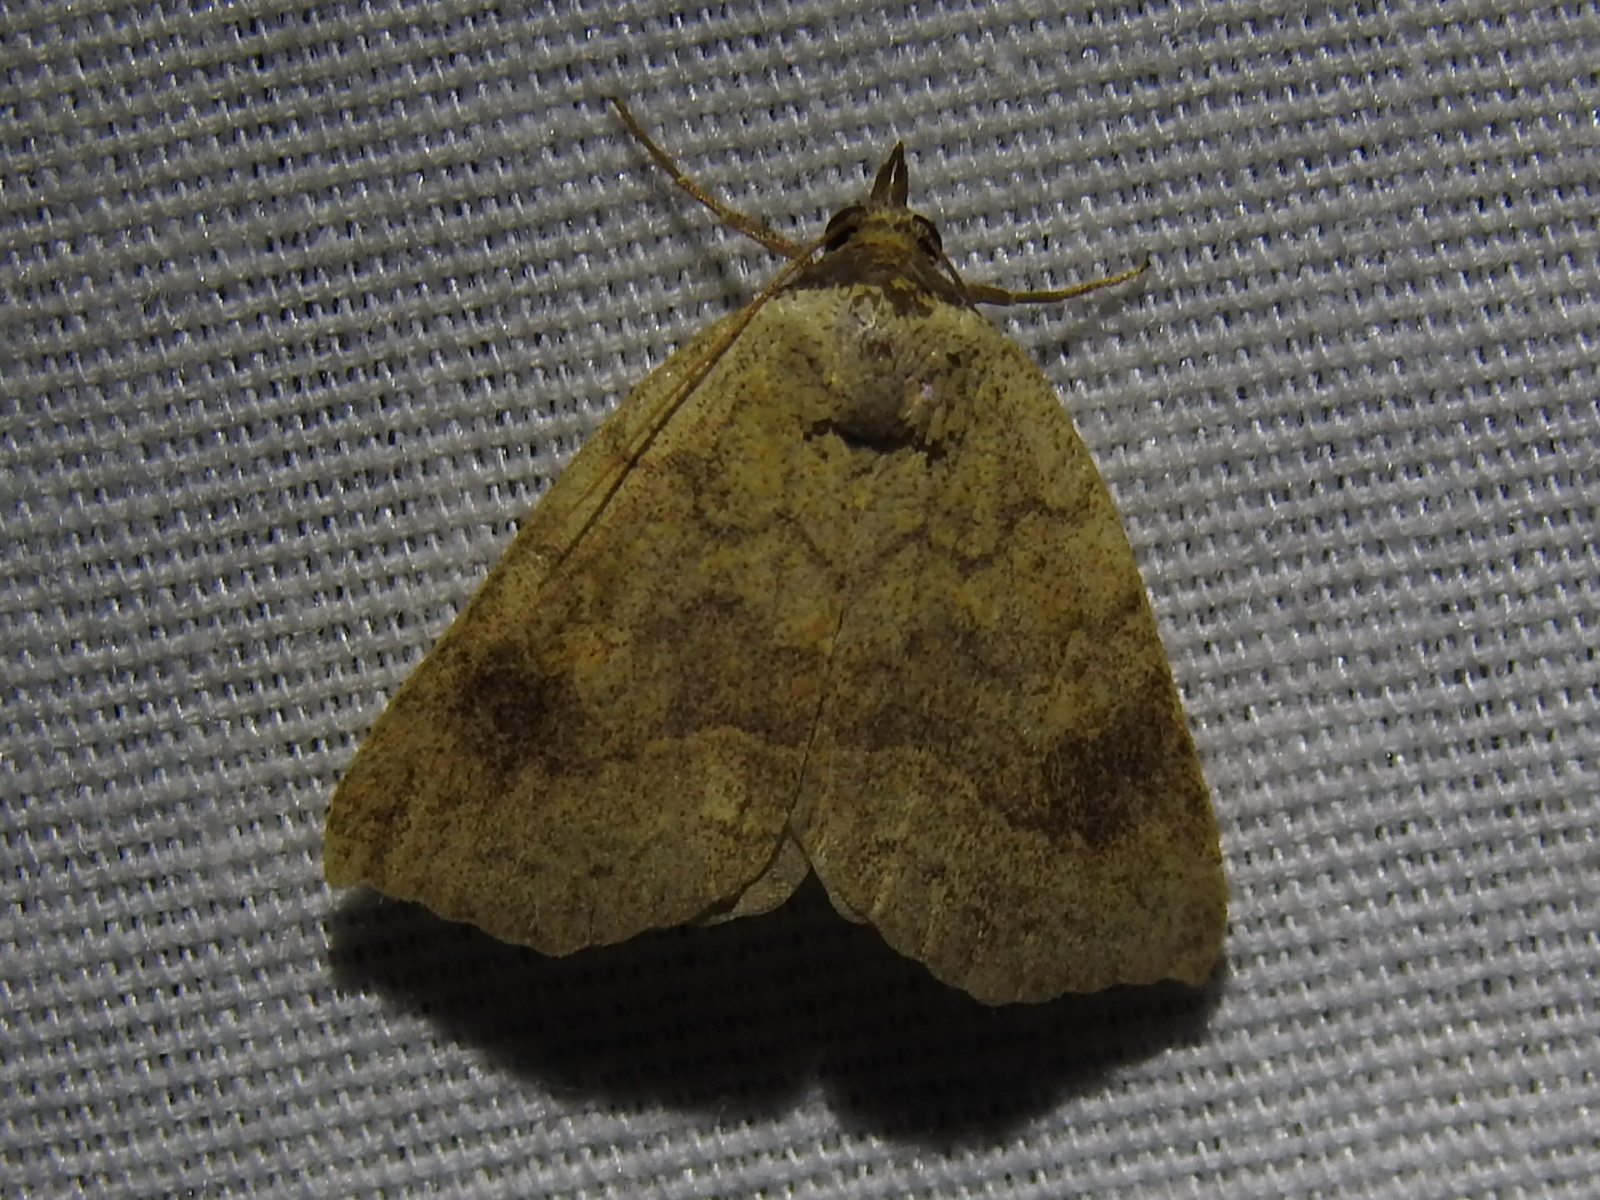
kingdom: Animalia
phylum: Arthropoda
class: Insecta
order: Lepidoptera
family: Erebidae
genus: Isogona
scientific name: Isogona texana
